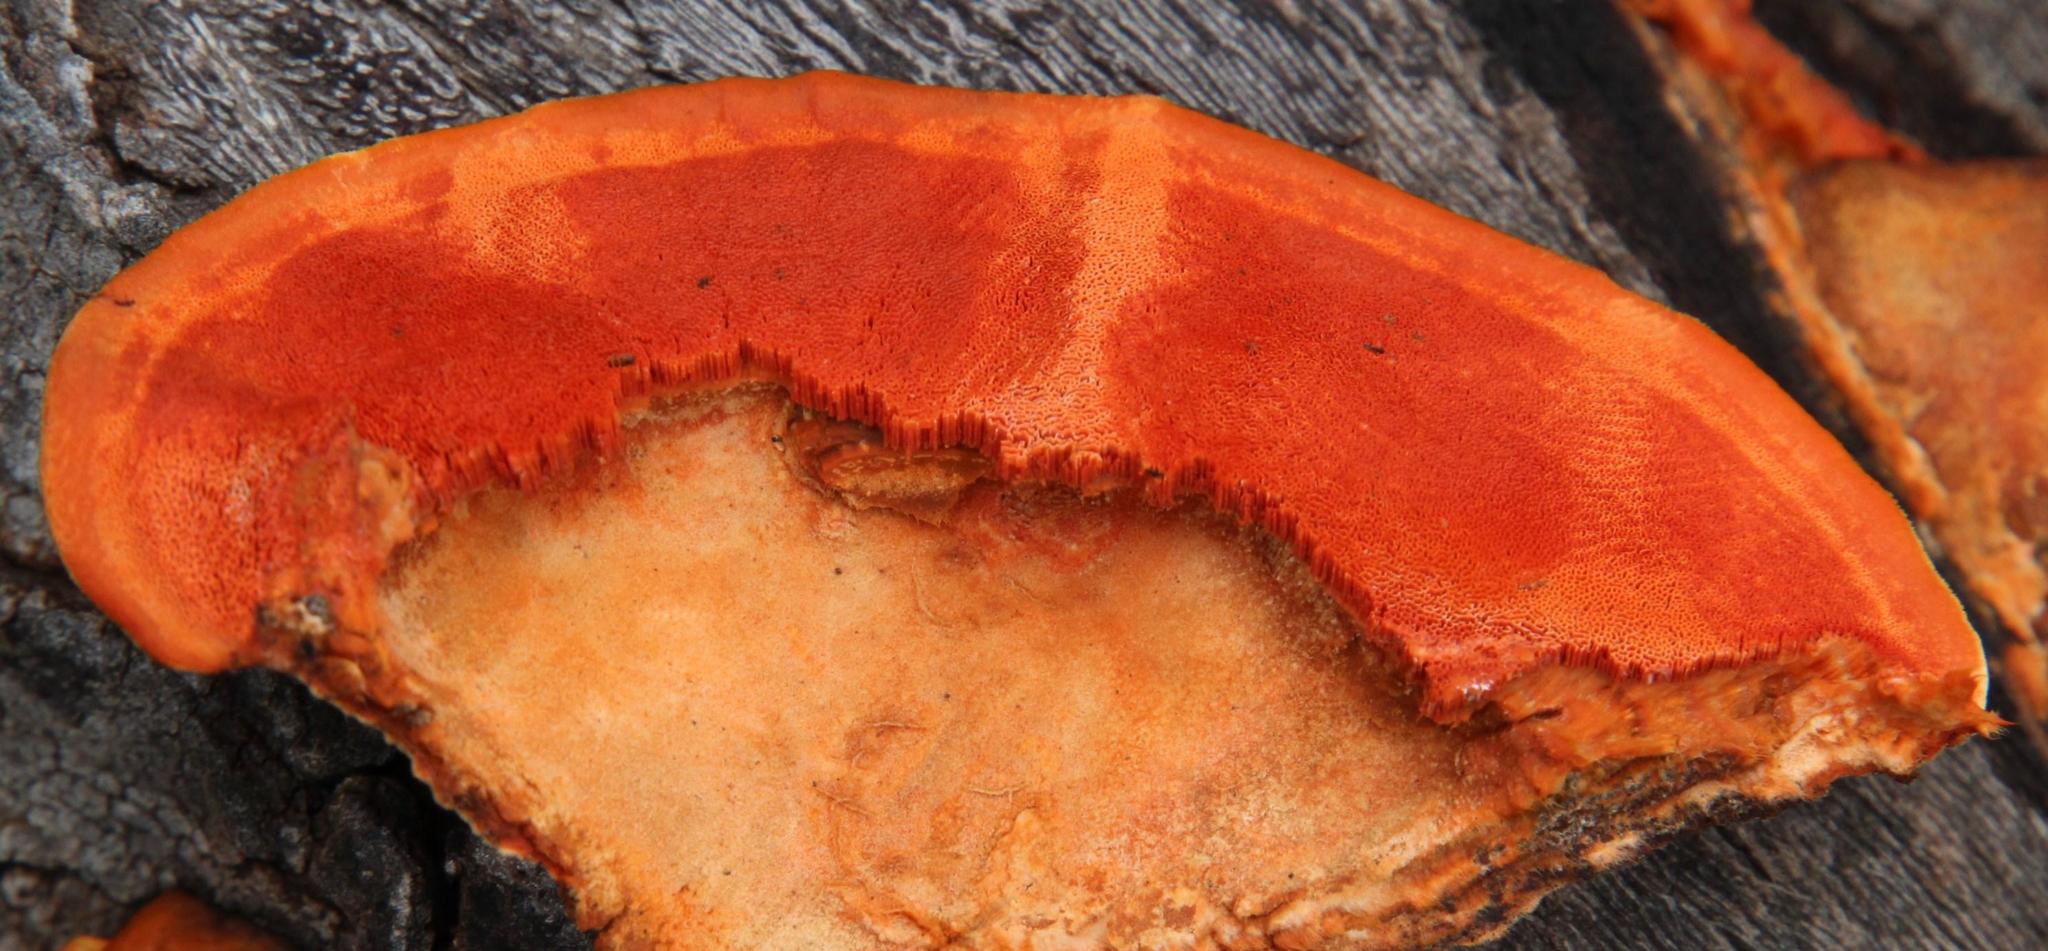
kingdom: Fungi
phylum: Basidiomycota
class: Agaricomycetes
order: Polyporales
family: Polyporaceae
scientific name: Polyporaceae
